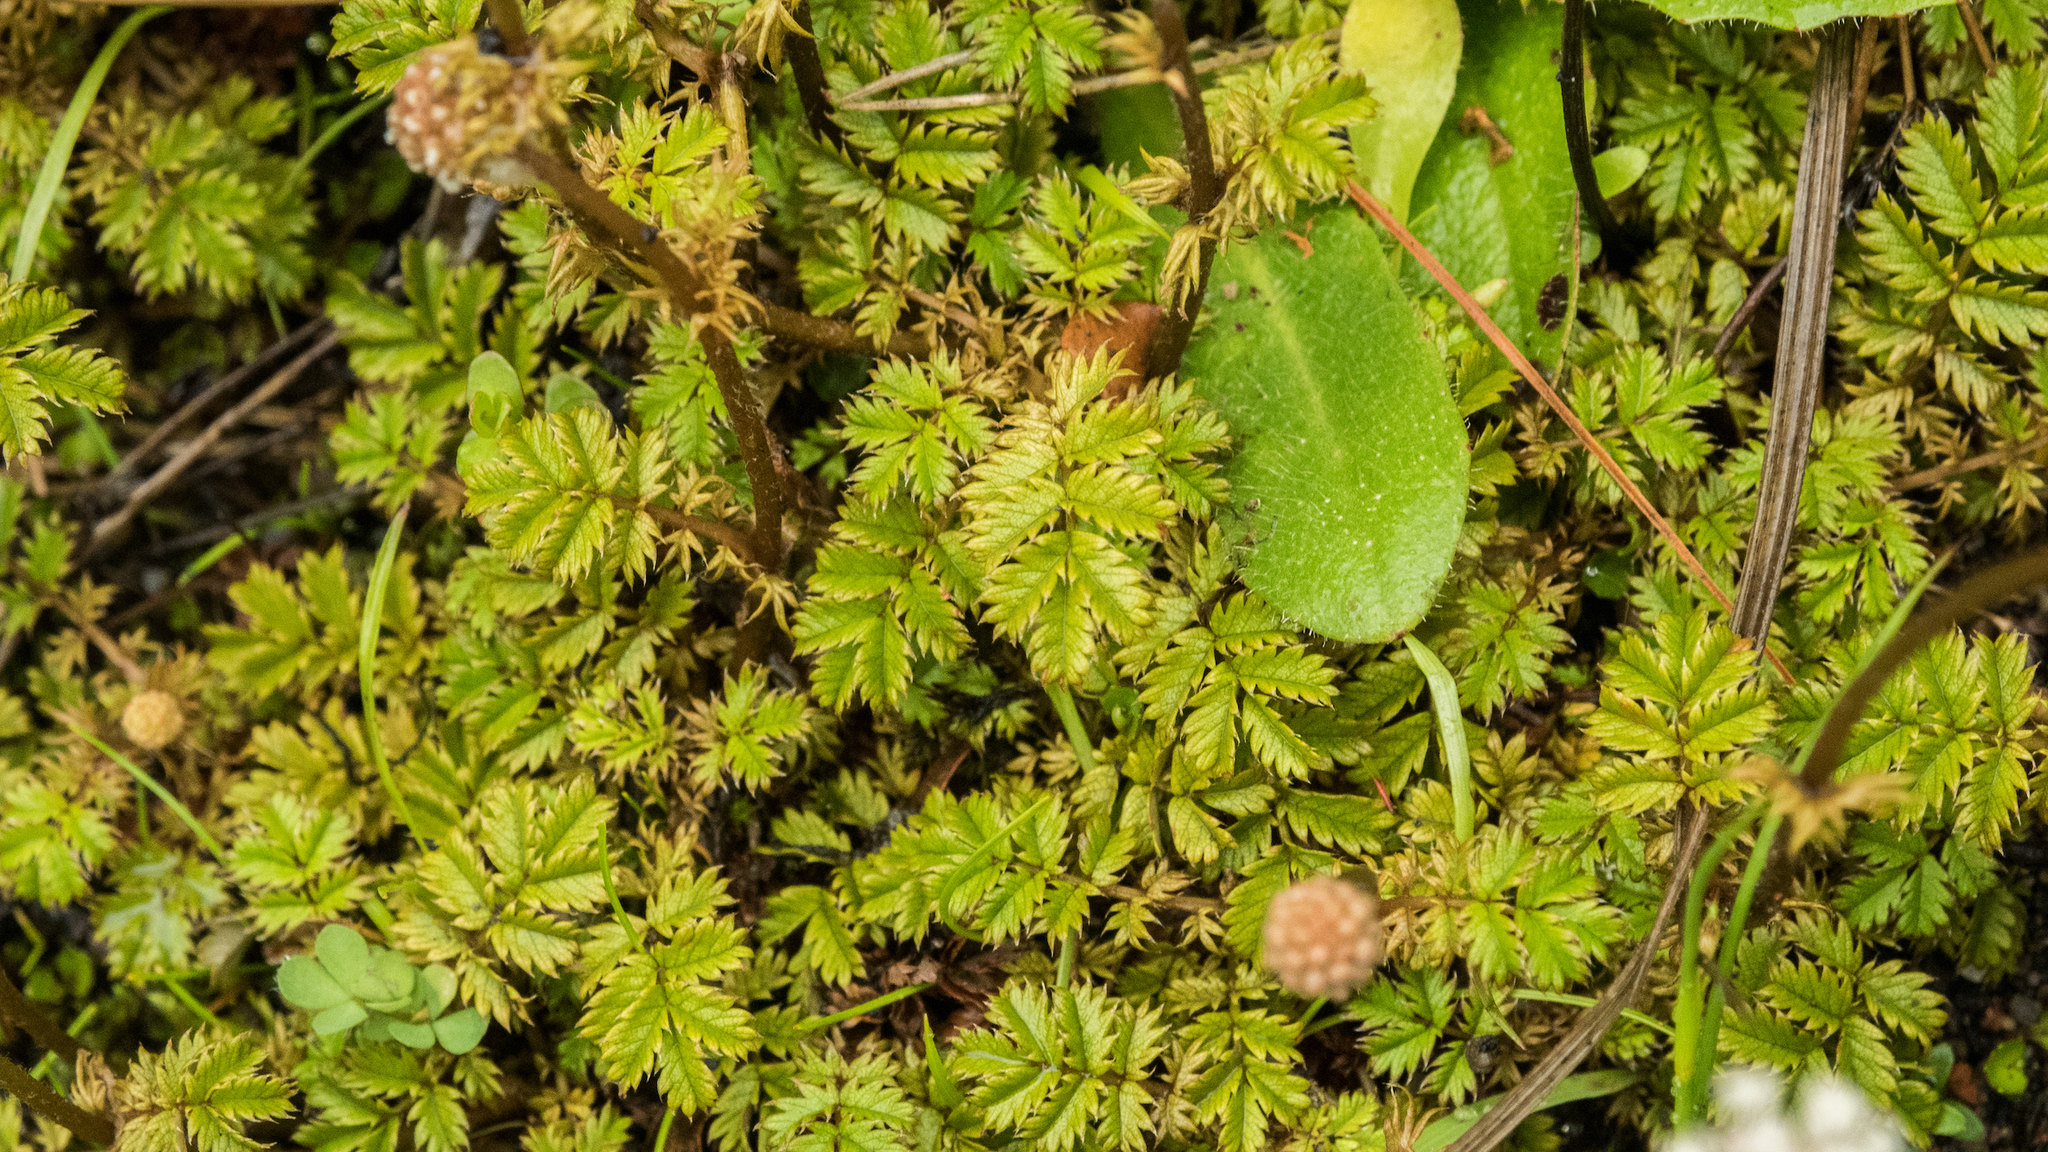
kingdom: Plantae
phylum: Tracheophyta
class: Magnoliopsida
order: Rosales
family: Rosaceae
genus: Acaena
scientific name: Acaena anserinifolia
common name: Bronze pirri-pirri-bur
